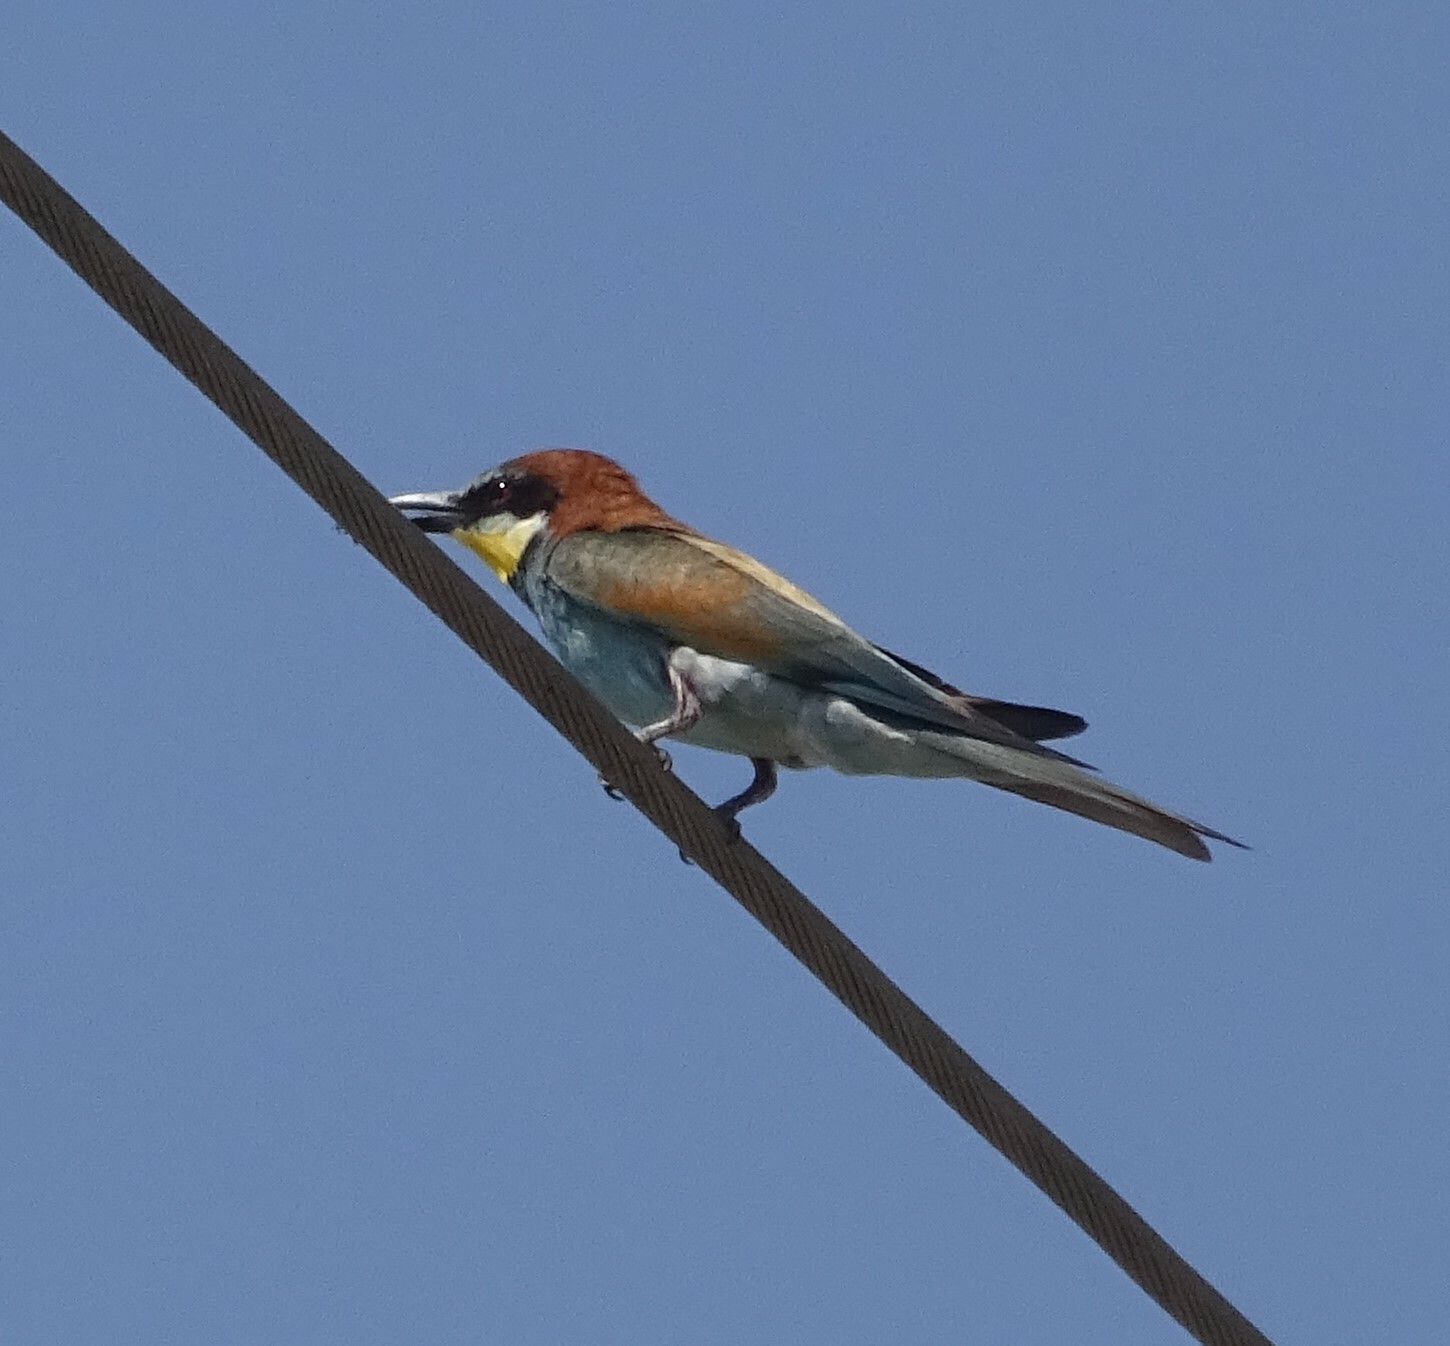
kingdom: Animalia
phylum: Chordata
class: Aves
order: Coraciiformes
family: Meropidae
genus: Merops
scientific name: Merops apiaster
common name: European bee-eater
